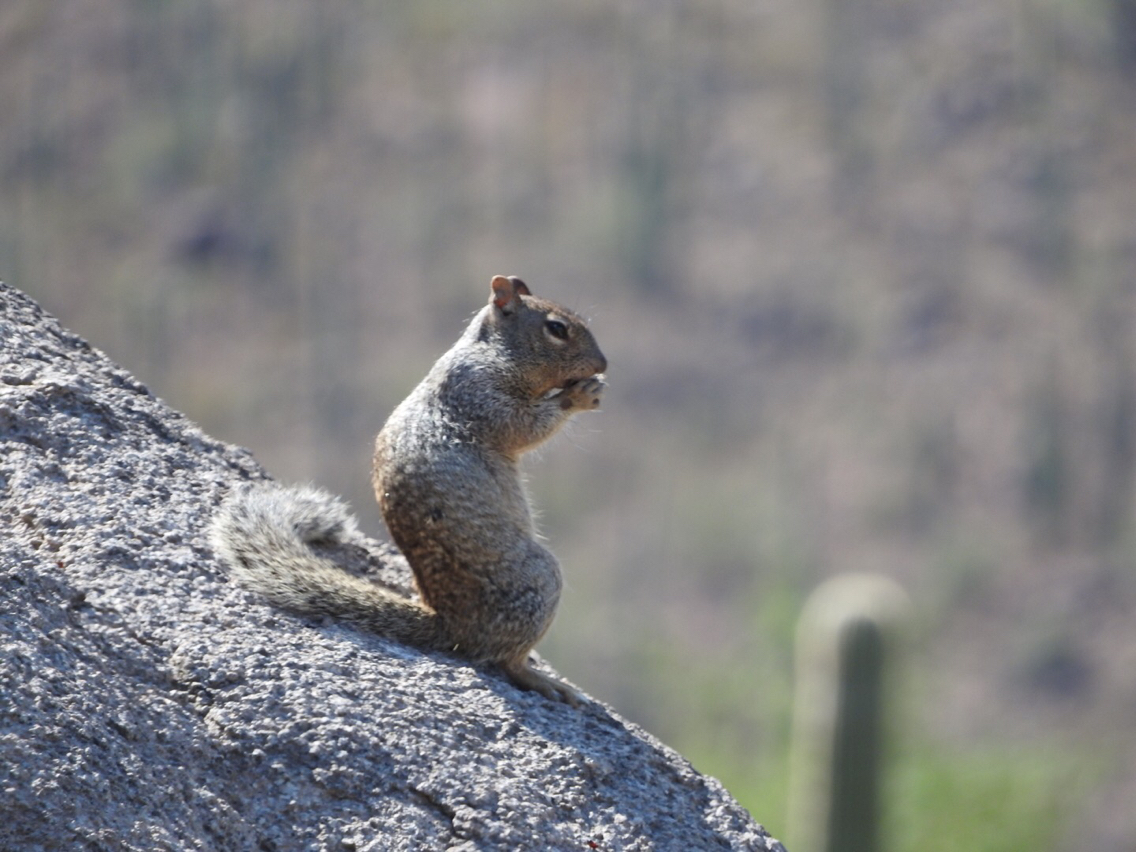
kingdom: Animalia
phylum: Chordata
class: Mammalia
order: Rodentia
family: Sciuridae
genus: Otospermophilus
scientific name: Otospermophilus variegatus
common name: Rock squirrel
